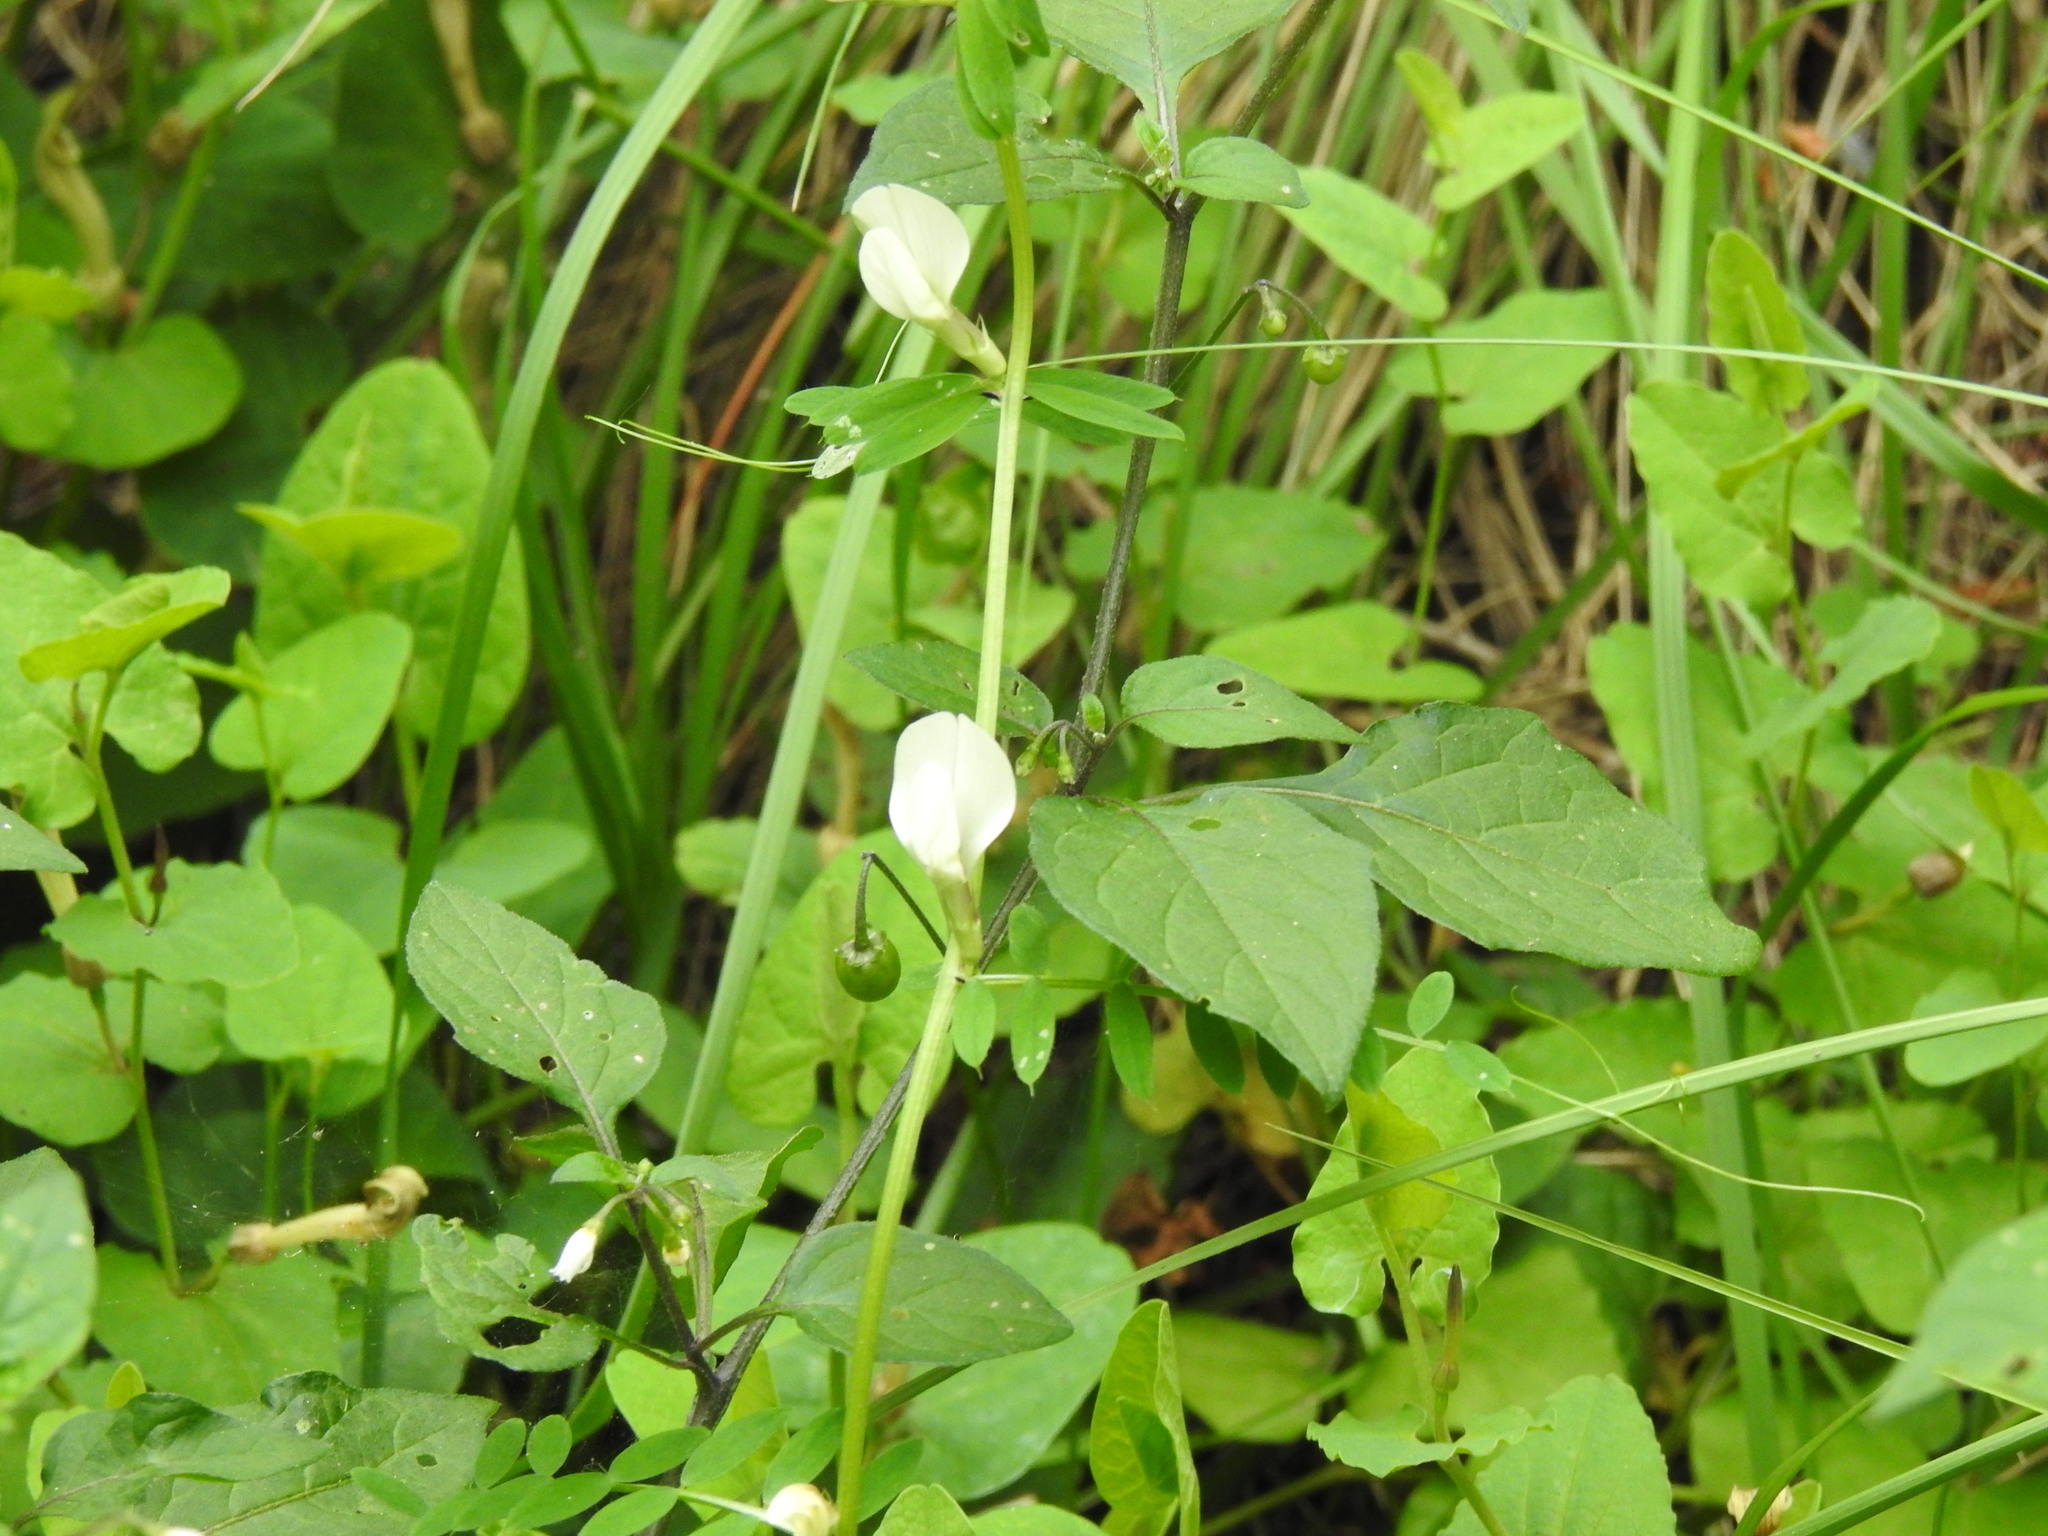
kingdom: Plantae
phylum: Tracheophyta
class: Magnoliopsida
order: Fabales
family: Fabaceae
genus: Vicia
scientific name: Vicia lutea
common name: Smooth yellow vetch
